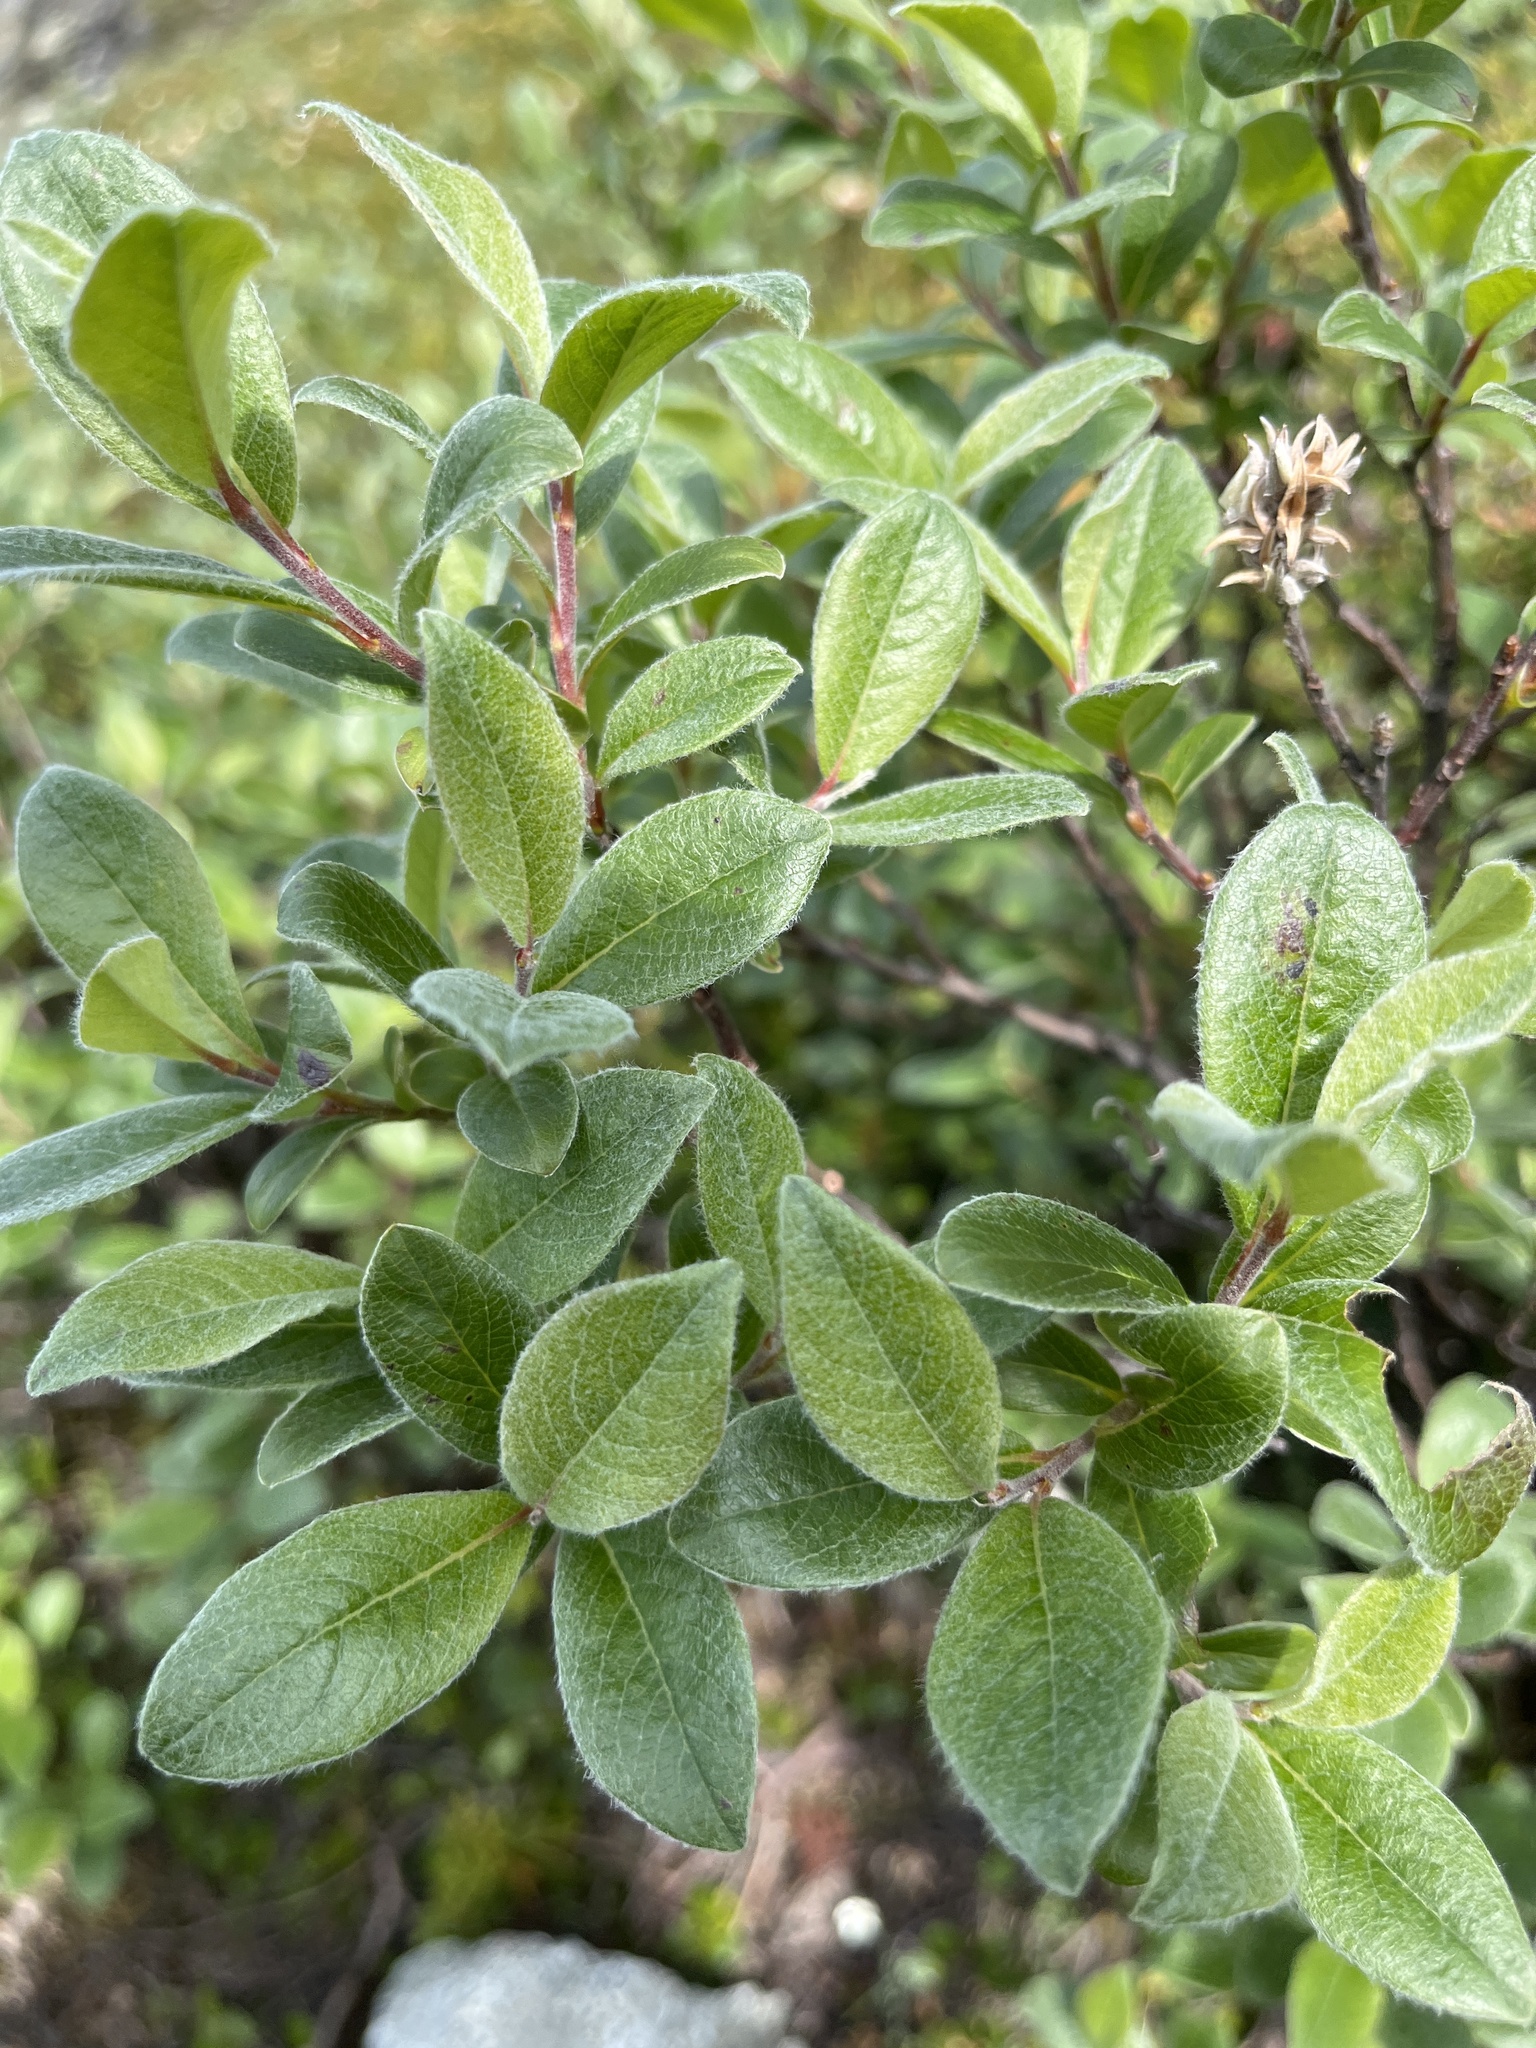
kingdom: Plantae
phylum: Tracheophyta
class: Magnoliopsida
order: Malpighiales
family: Salicaceae
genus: Salix
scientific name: Salix glauca
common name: Glaucous willow
